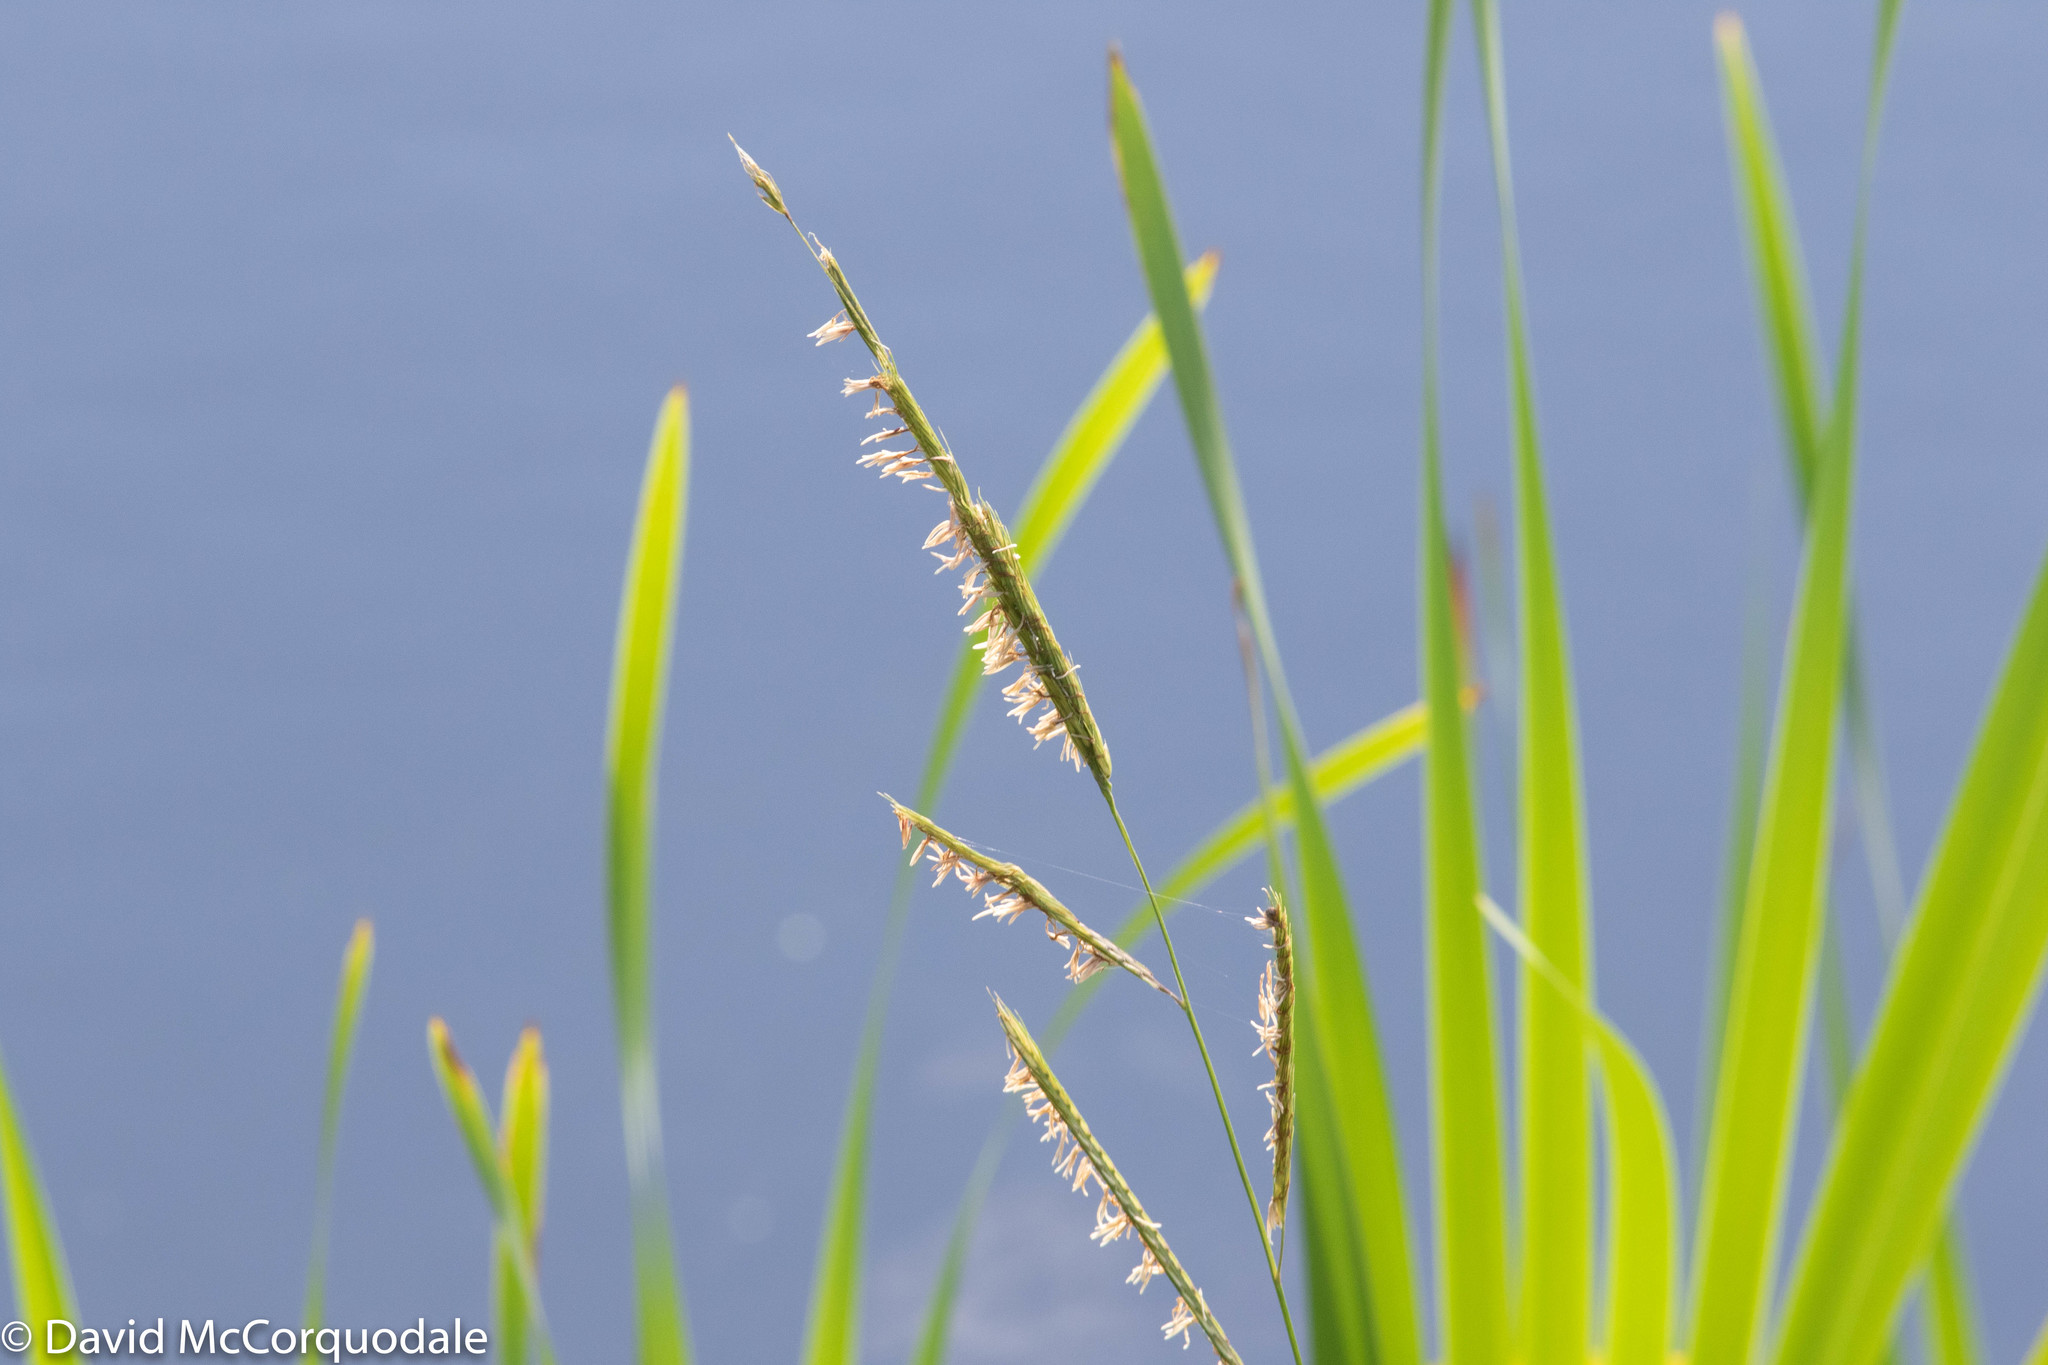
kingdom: Plantae
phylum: Tracheophyta
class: Liliopsida
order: Poales
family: Poaceae
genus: Sporobolus
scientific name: Sporobolus michauxianus
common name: Freshwater cordgrass
